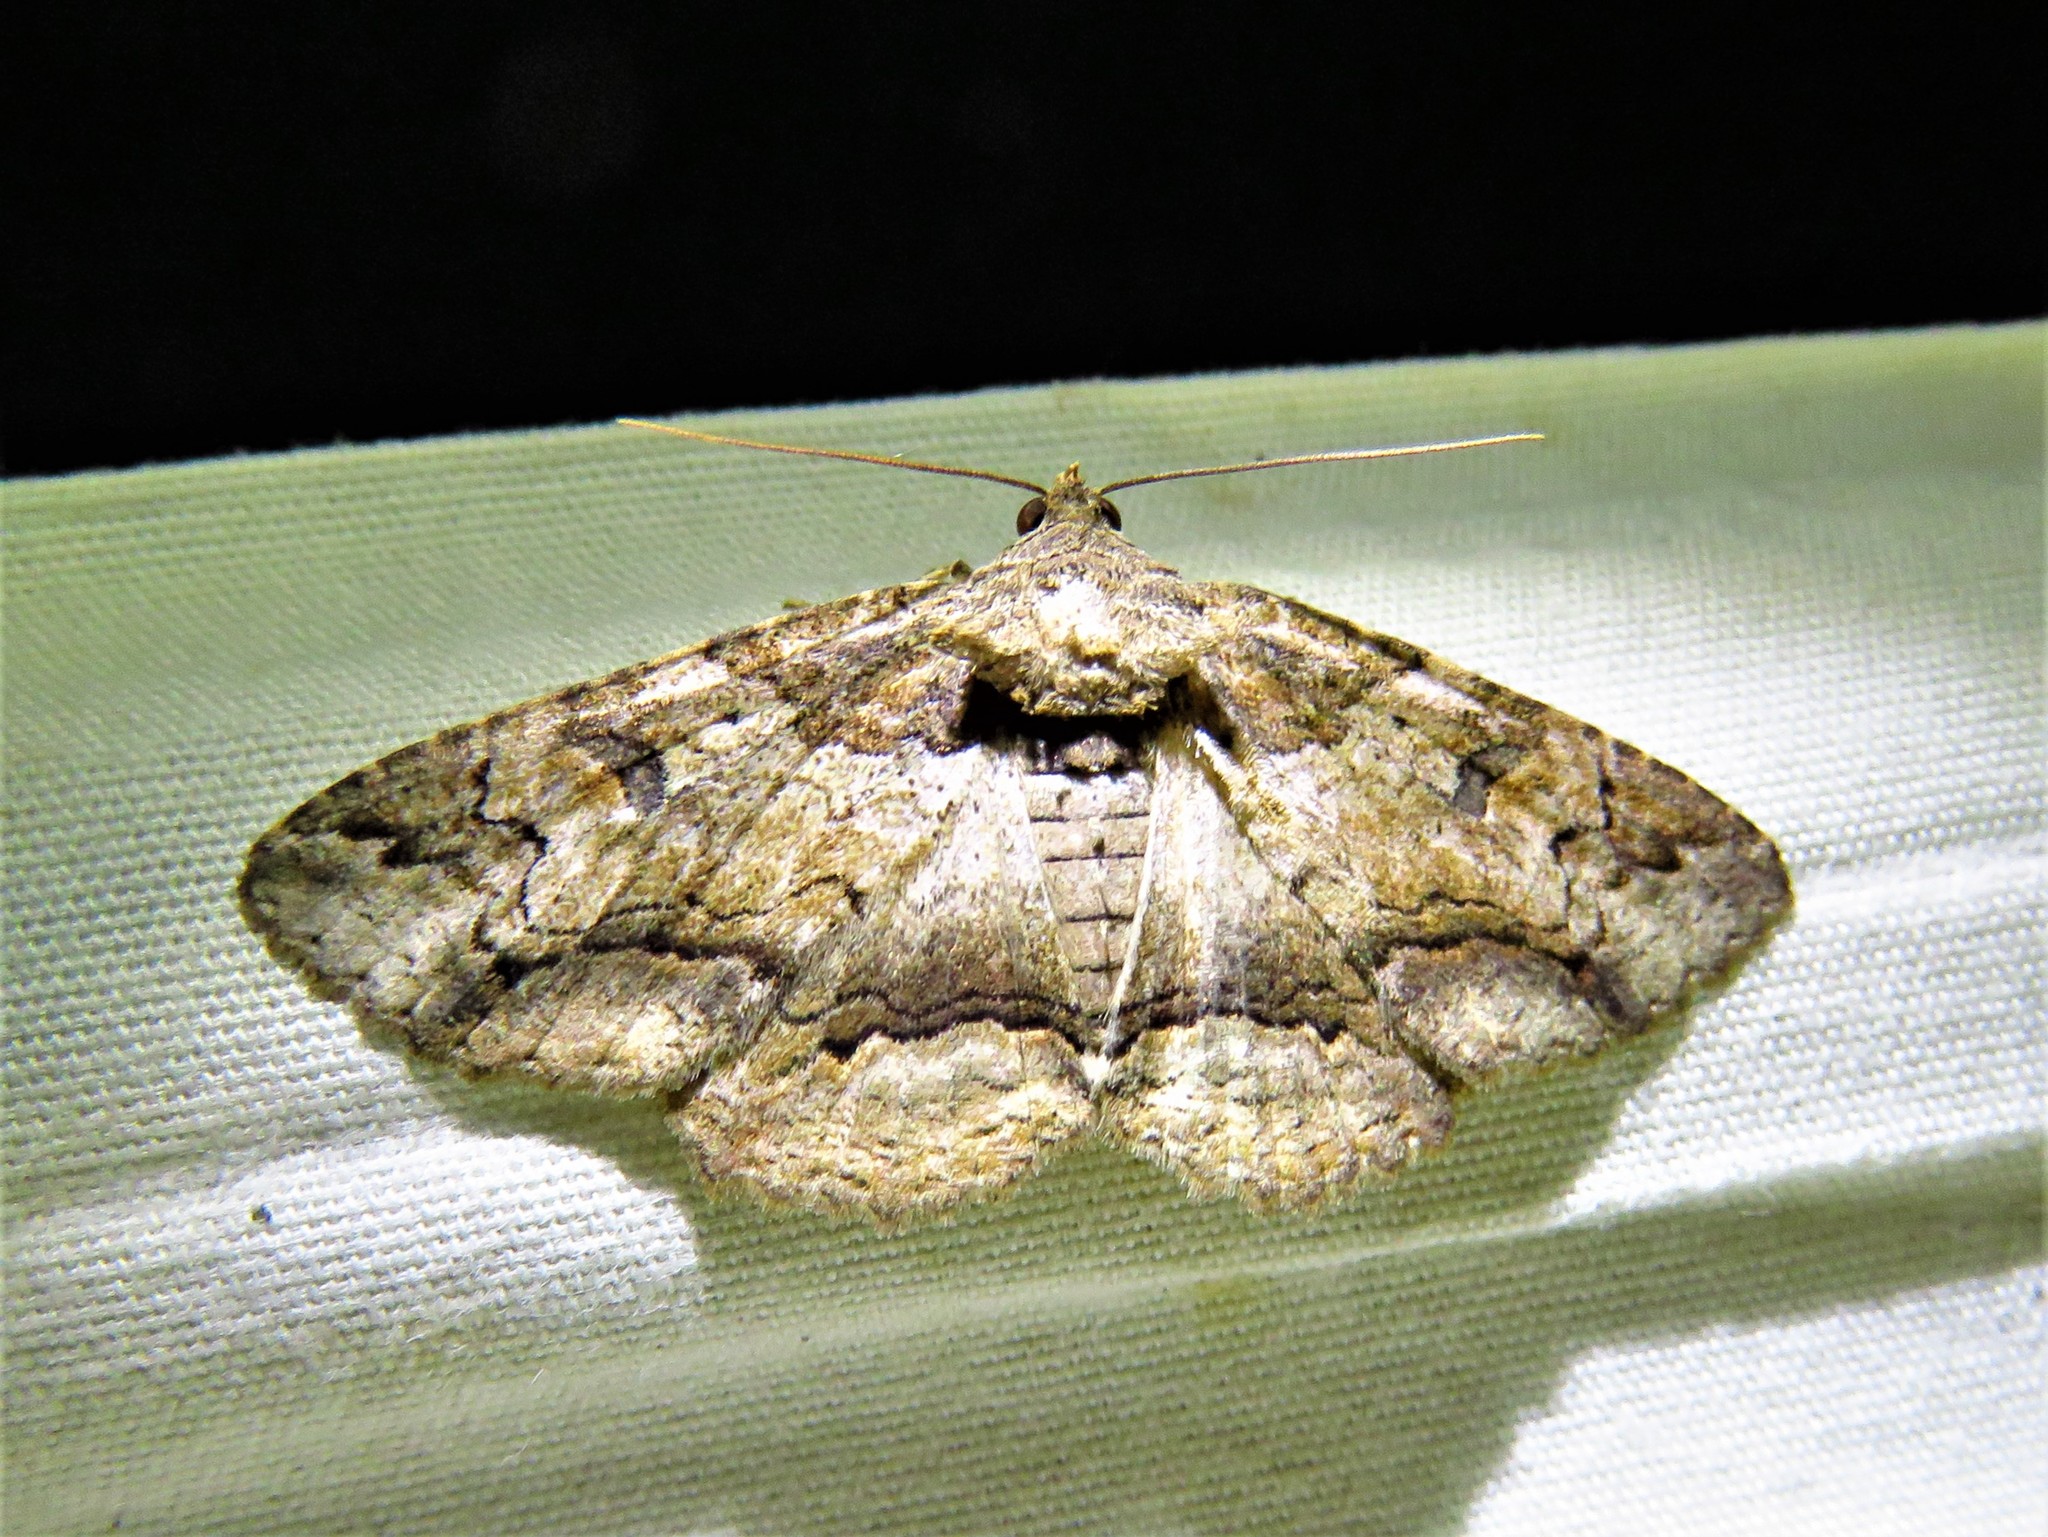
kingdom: Animalia
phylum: Arthropoda
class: Insecta
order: Lepidoptera
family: Erebidae
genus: Zale
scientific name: Zale galbanata
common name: Maple zale
